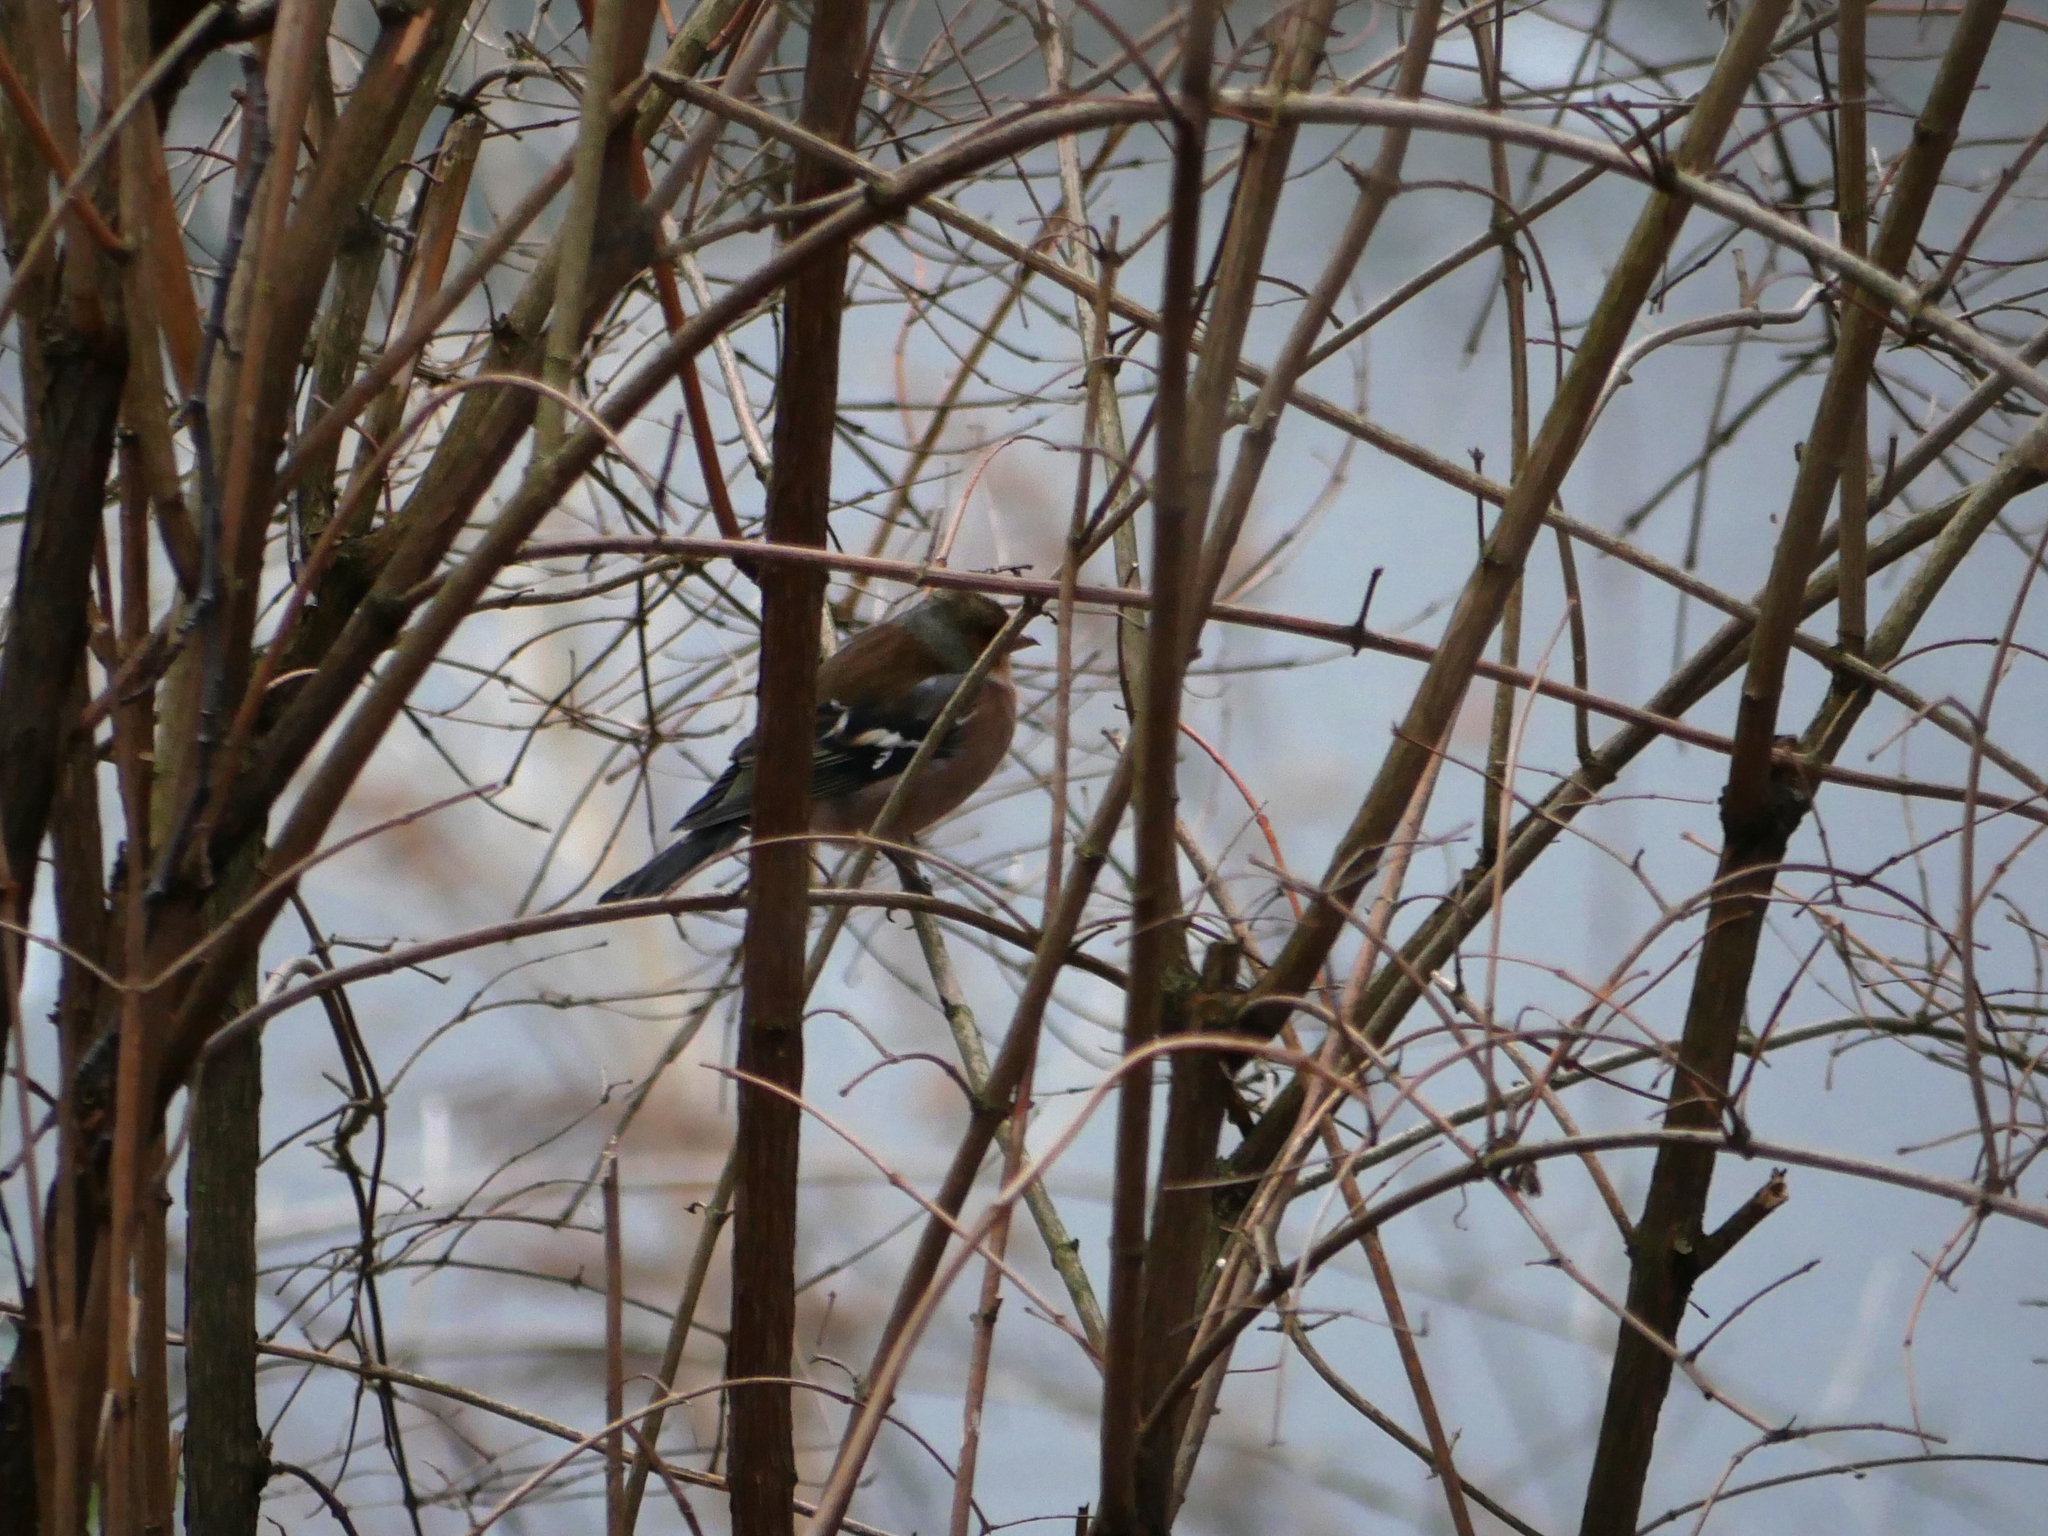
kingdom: Animalia
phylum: Chordata
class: Aves
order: Passeriformes
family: Fringillidae
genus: Fringilla
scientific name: Fringilla coelebs
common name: Common chaffinch
